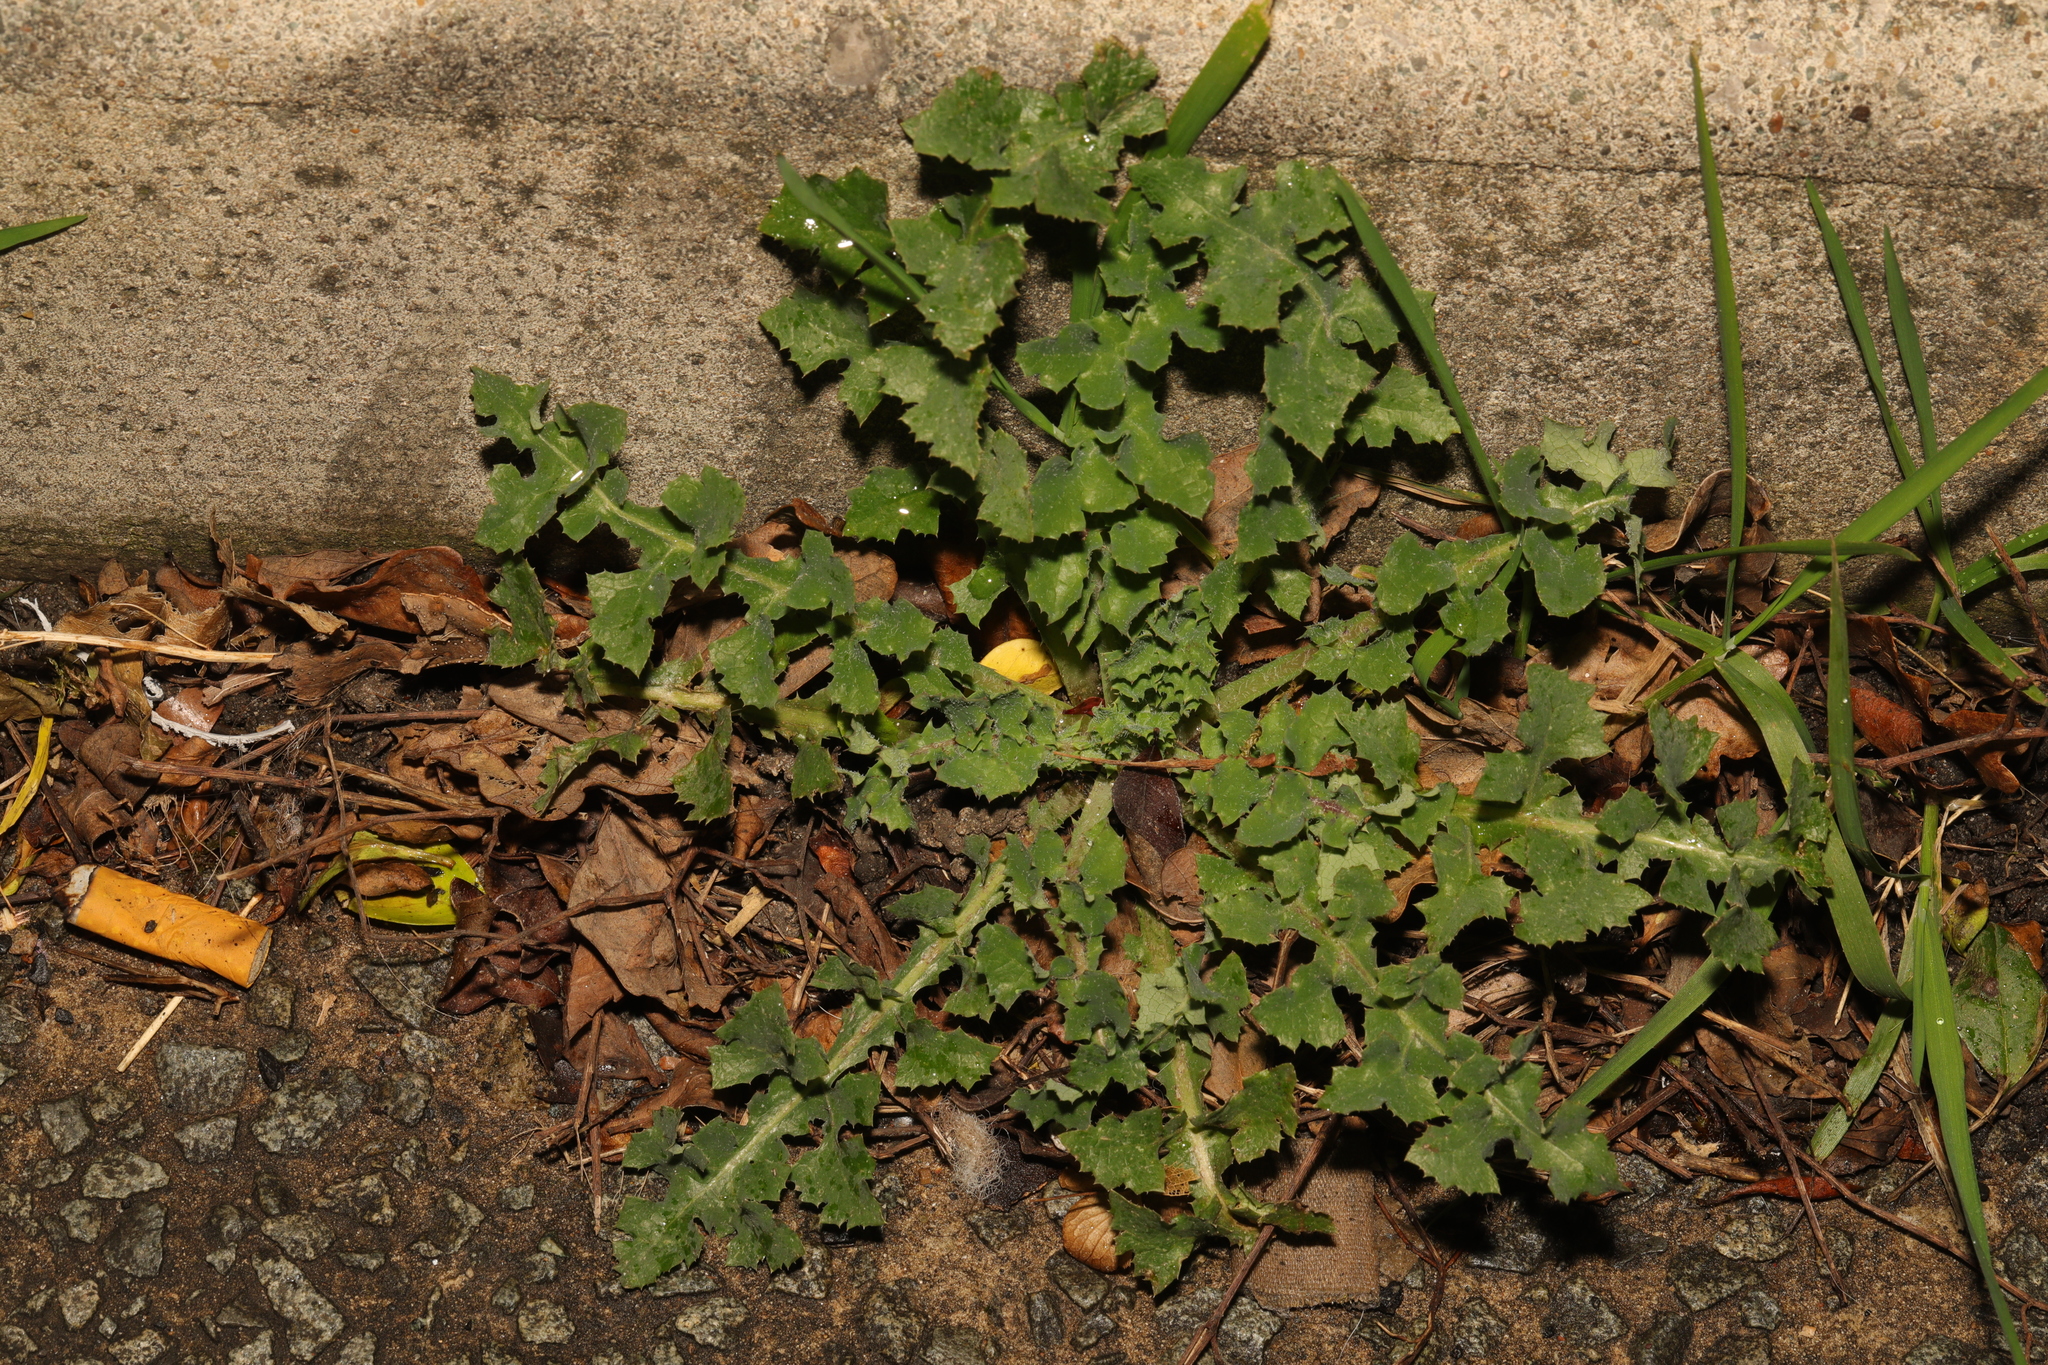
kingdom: Plantae
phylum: Tracheophyta
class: Magnoliopsida
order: Asterales
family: Asteraceae
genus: Sonchus
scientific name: Sonchus oleraceus
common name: Common sowthistle
